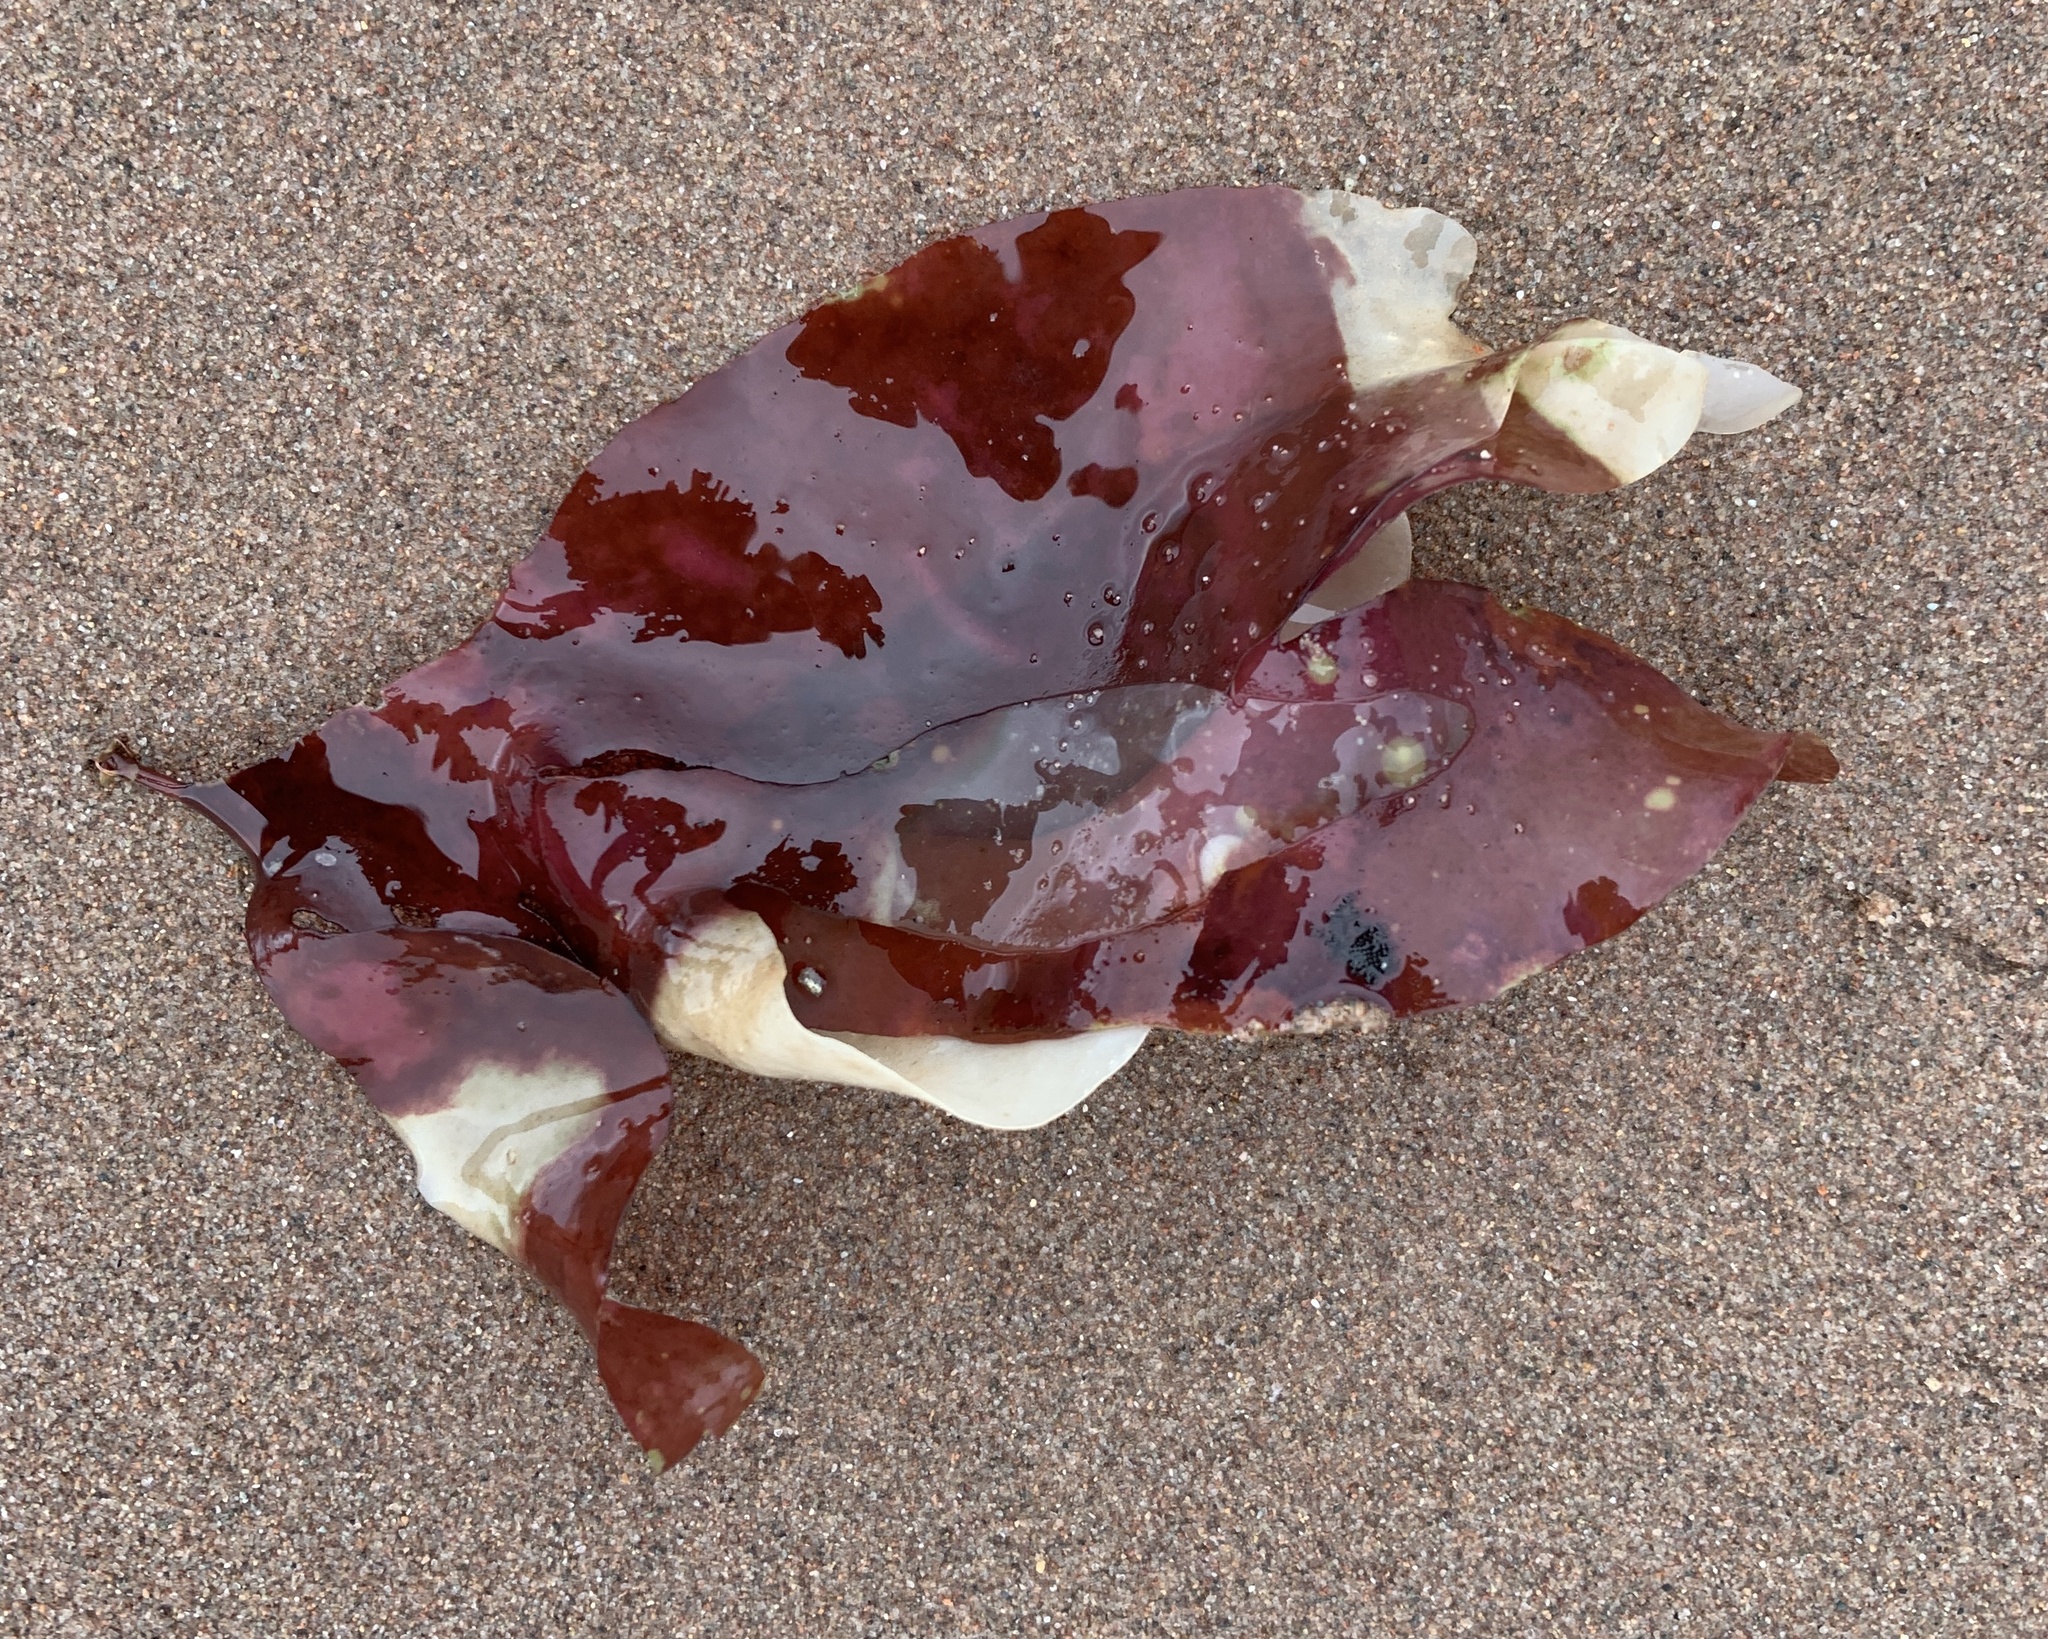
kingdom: Plantae
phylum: Rhodophyta
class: Florideophyceae
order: Palmariales
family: Palmariaceae
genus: Palmaria
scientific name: Palmaria palmata
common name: Dulse
